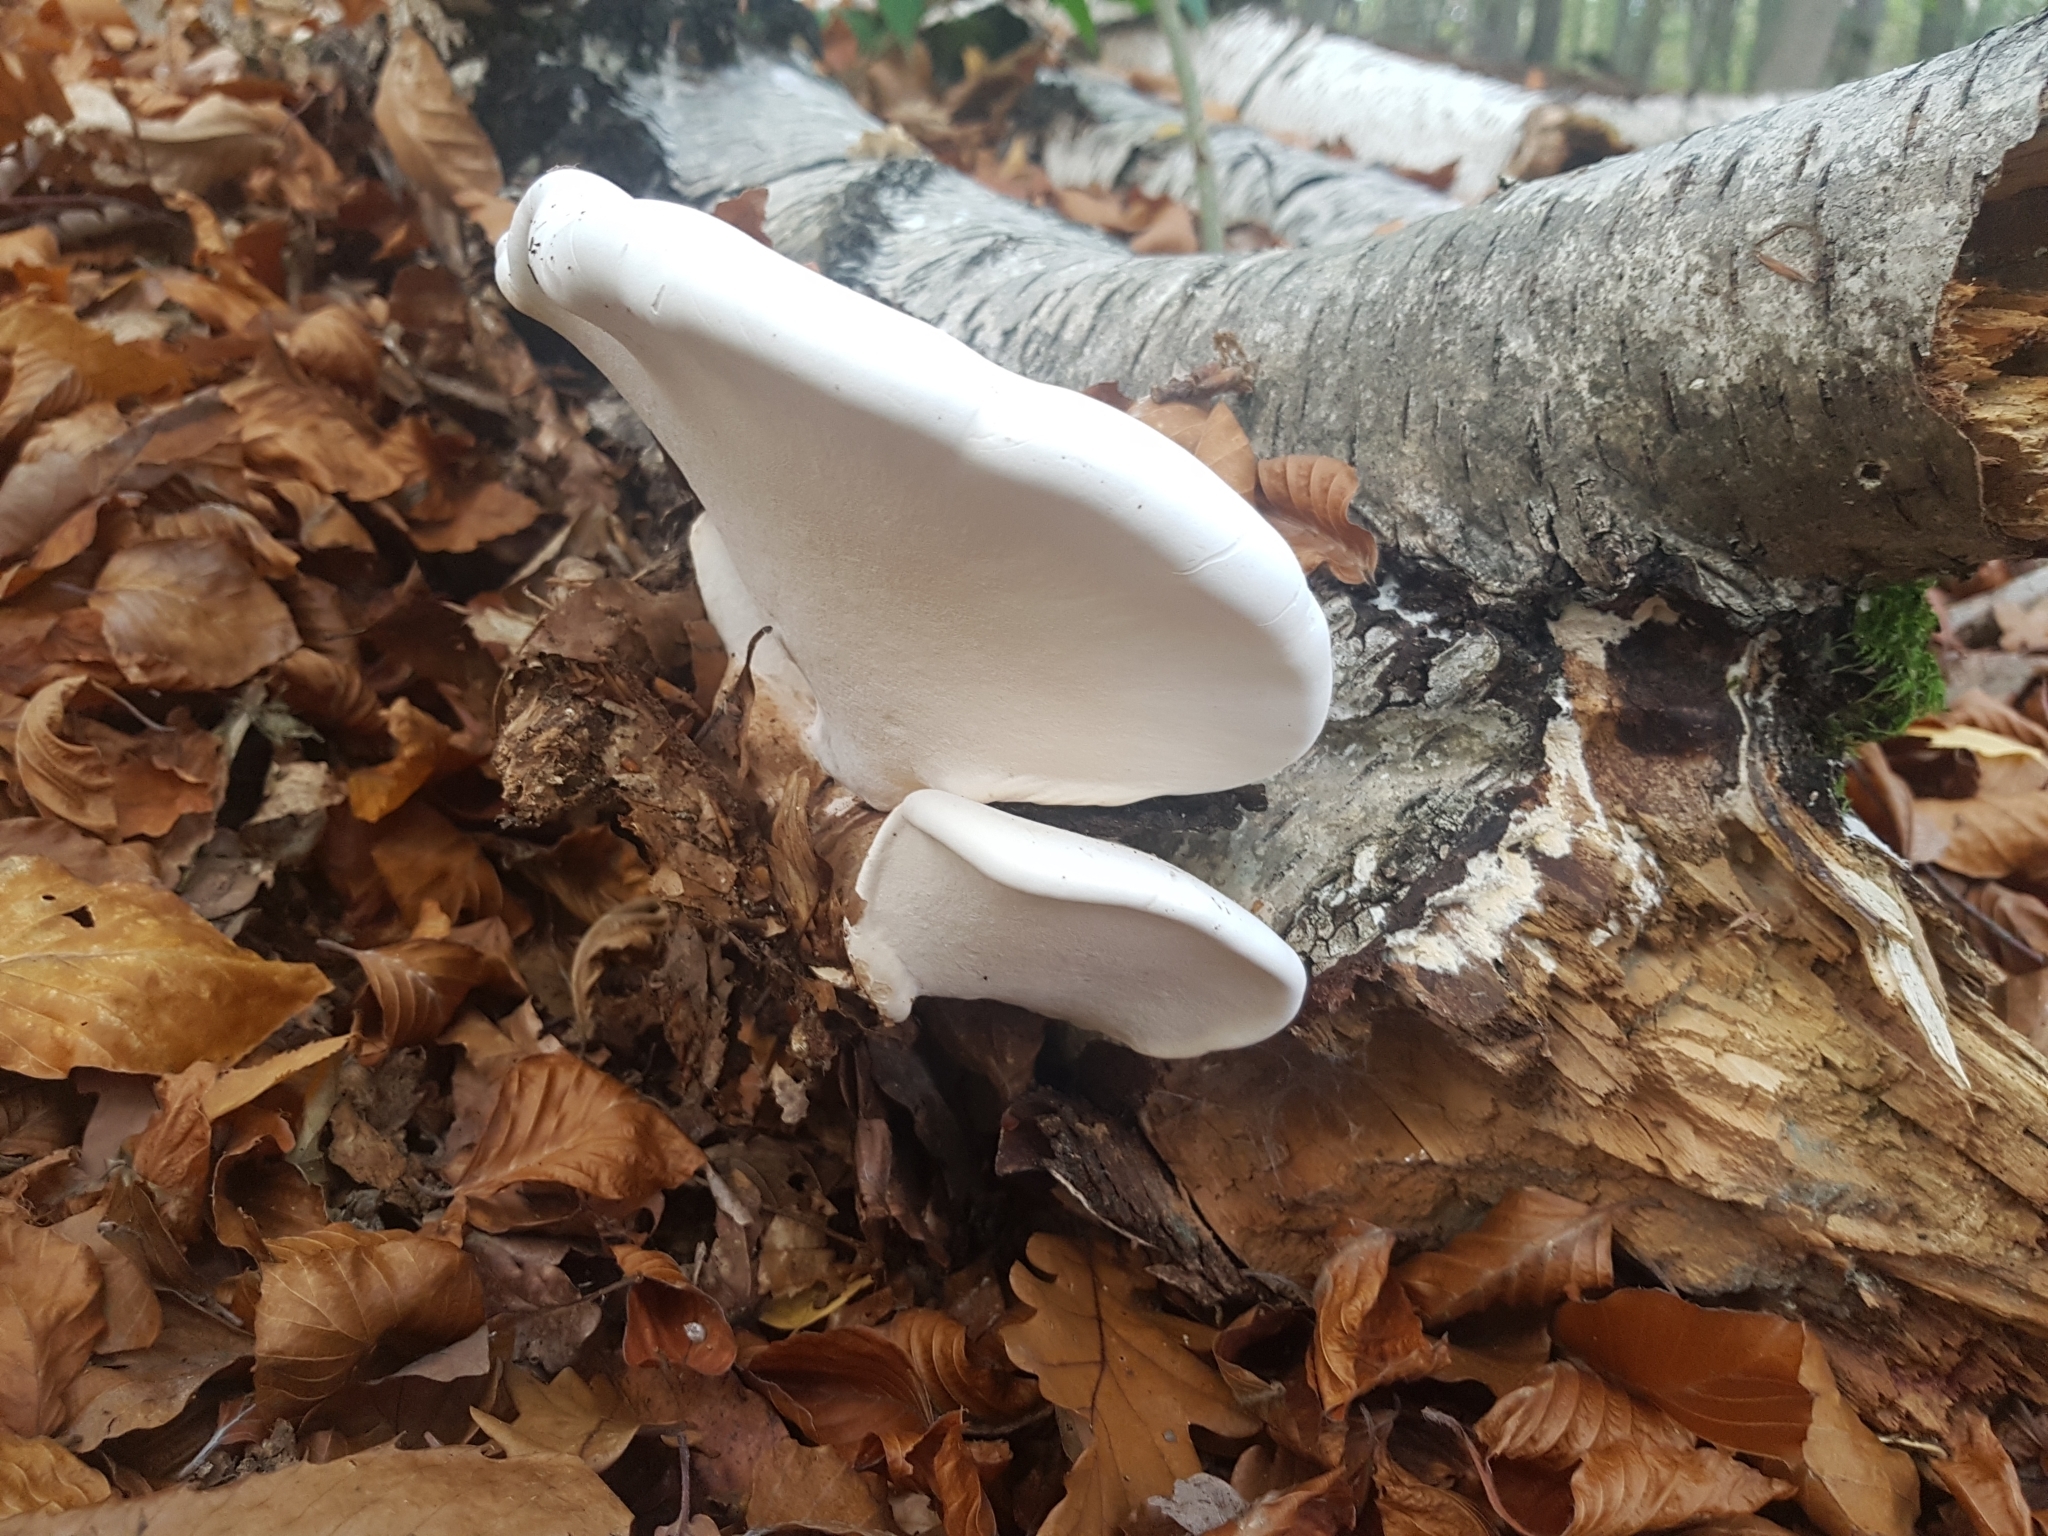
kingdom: Fungi
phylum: Basidiomycota
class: Agaricomycetes
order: Polyporales
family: Fomitopsidaceae
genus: Fomitopsis
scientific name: Fomitopsis betulina
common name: Birch polypore
